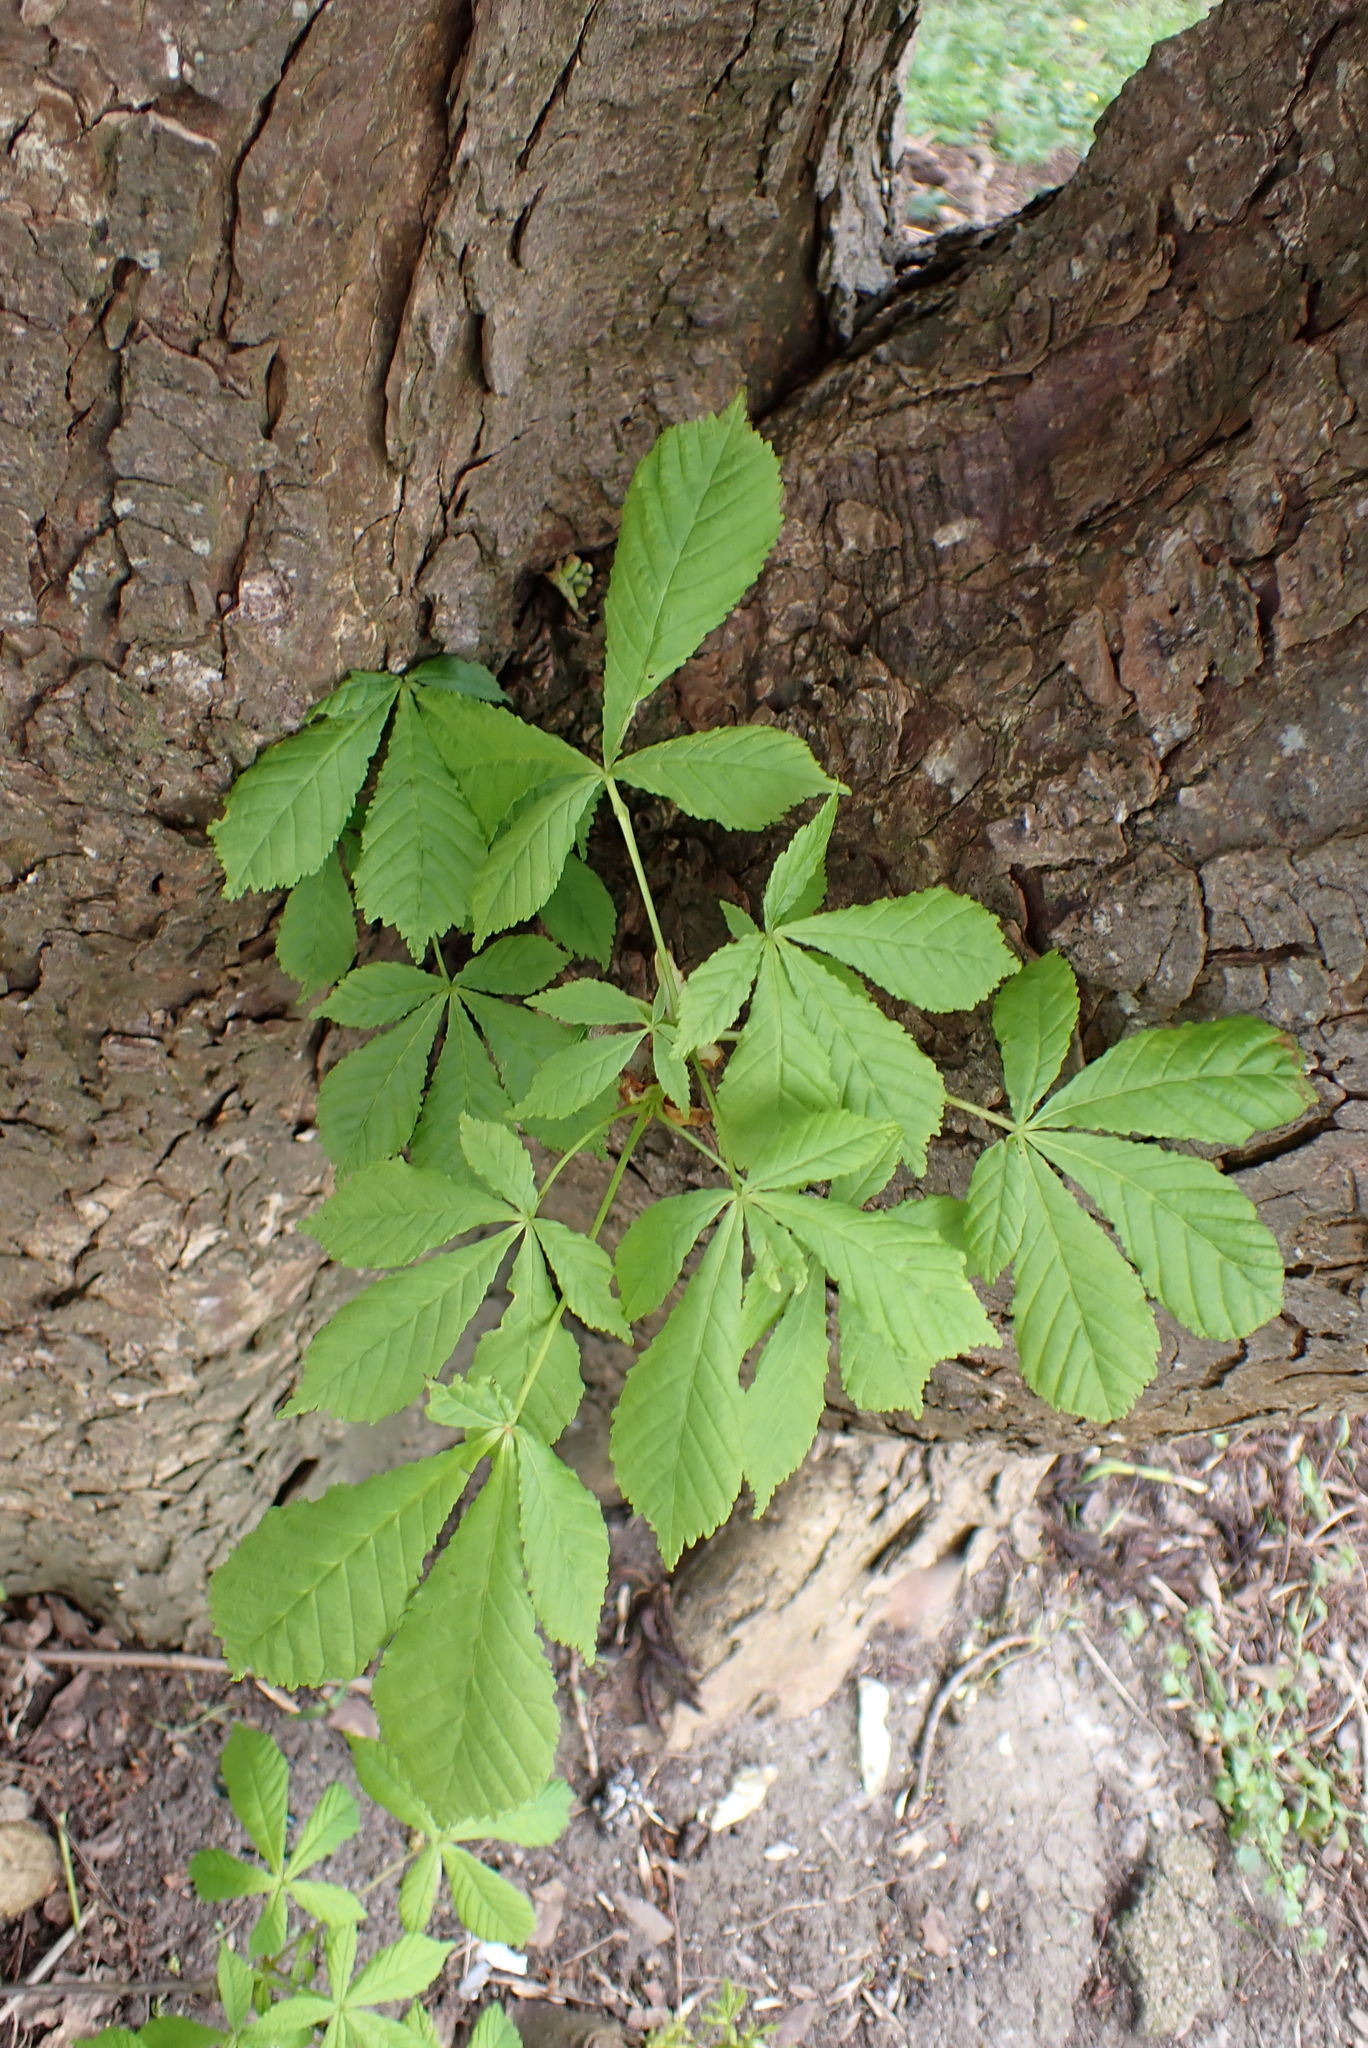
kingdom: Plantae
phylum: Tracheophyta
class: Magnoliopsida
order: Sapindales
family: Sapindaceae
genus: Aesculus
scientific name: Aesculus hippocastanum
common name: Horse-chestnut
